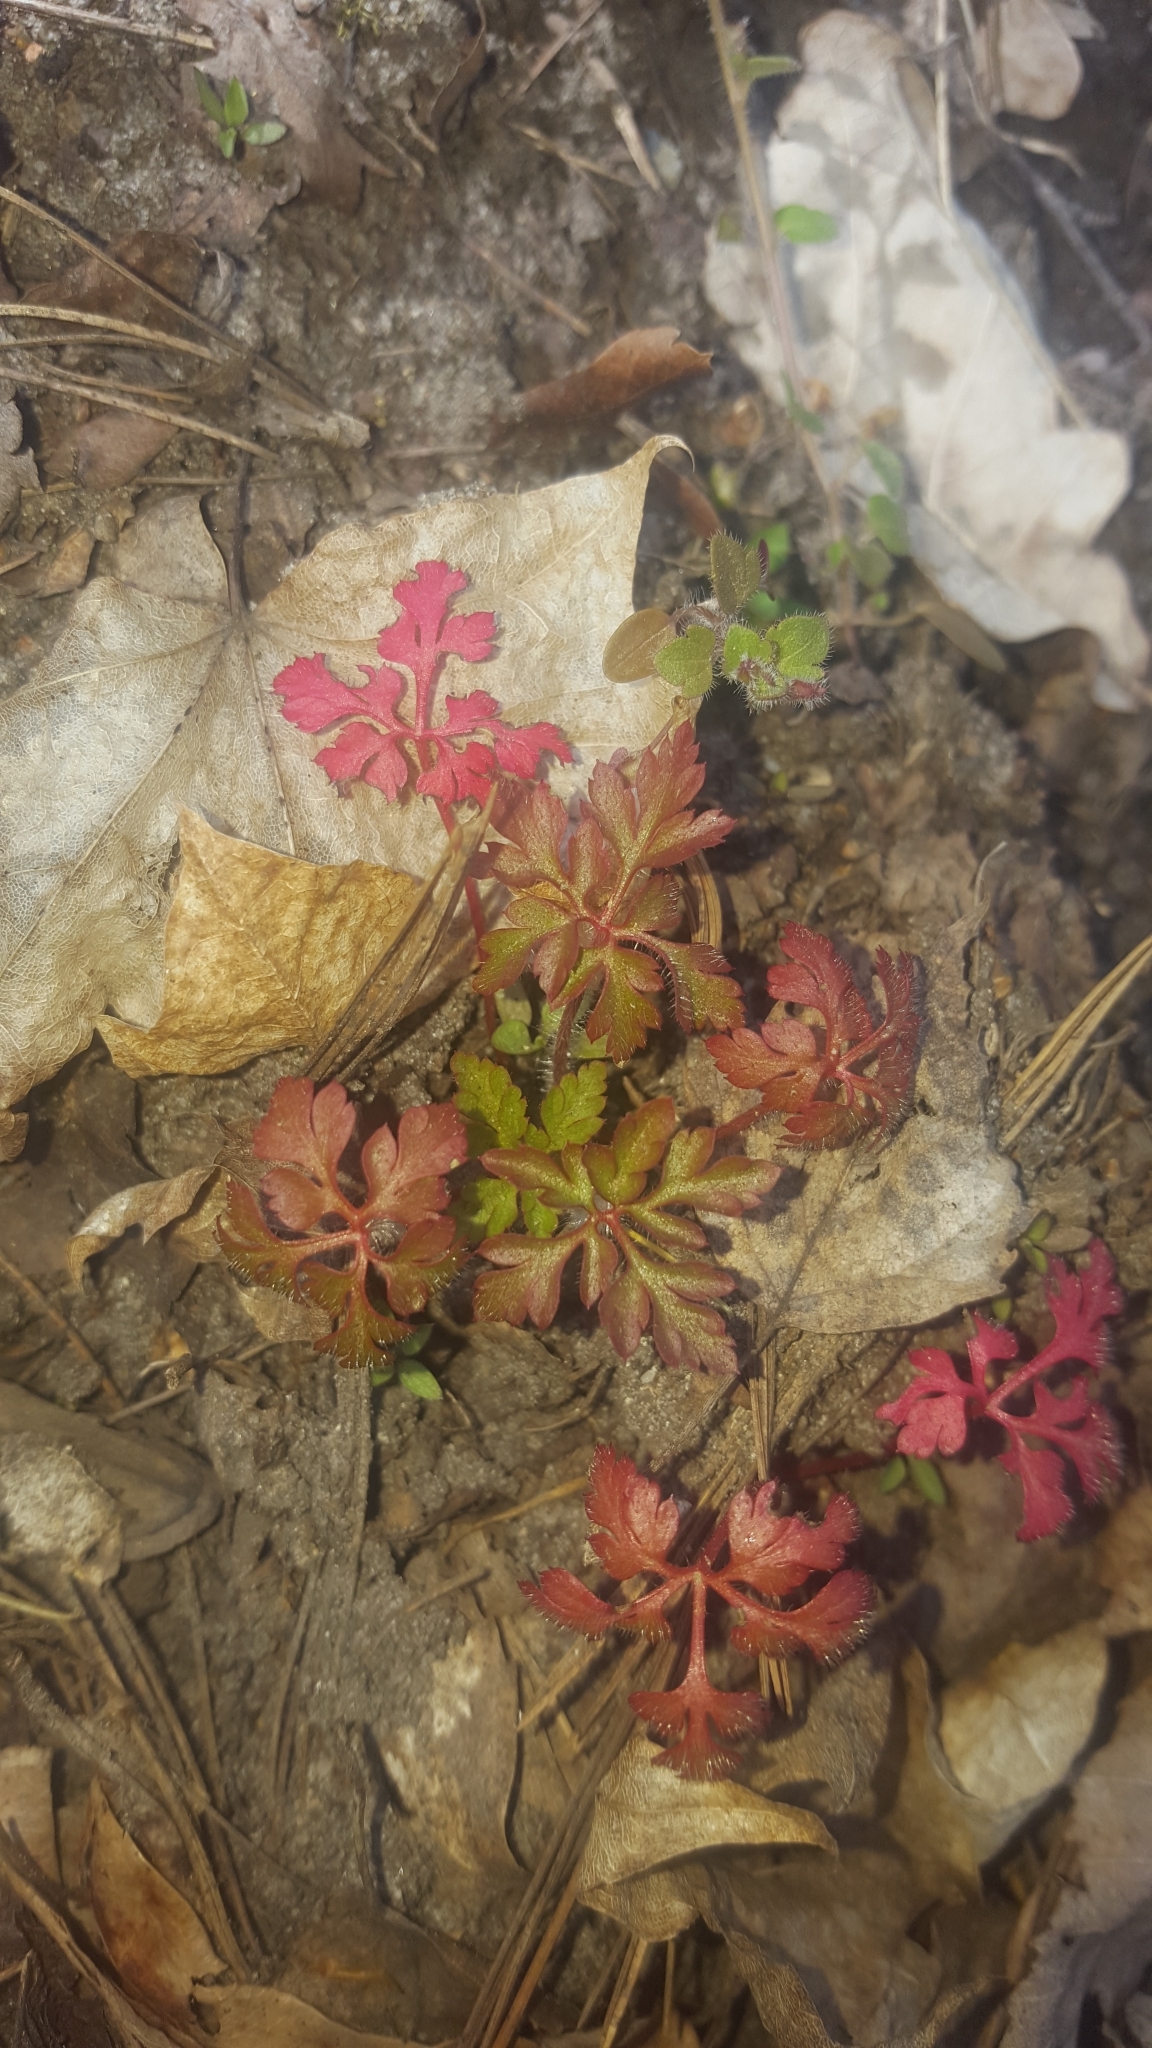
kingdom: Plantae
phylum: Tracheophyta
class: Magnoliopsida
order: Geraniales
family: Geraniaceae
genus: Geranium
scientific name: Geranium robertianum
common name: Herb-robert
